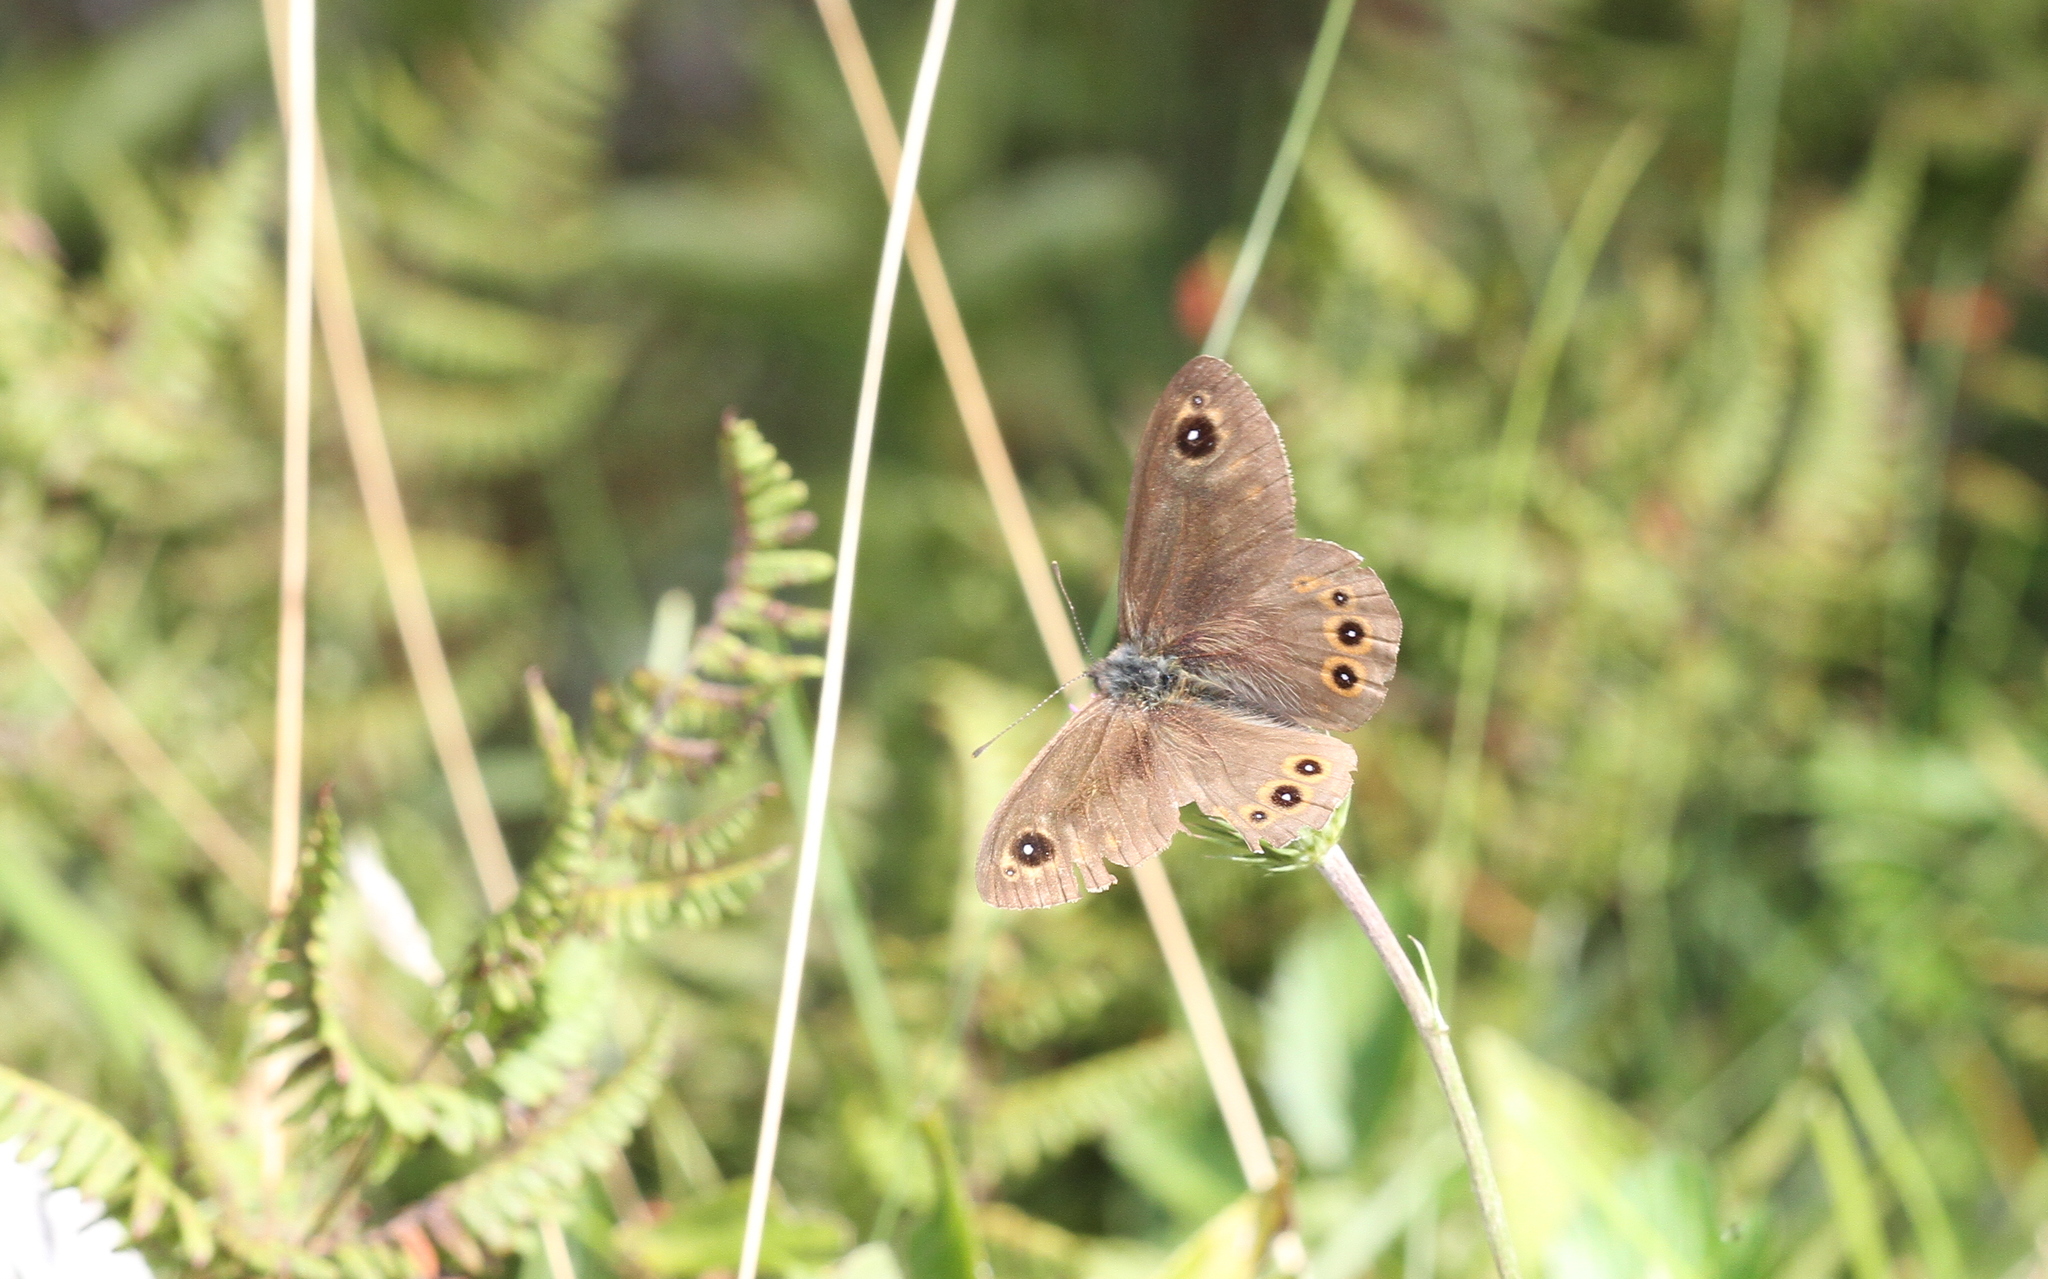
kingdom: Animalia
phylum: Arthropoda
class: Insecta
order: Lepidoptera
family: Nymphalidae
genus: Pararge
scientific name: Pararge Lasiommata maera
